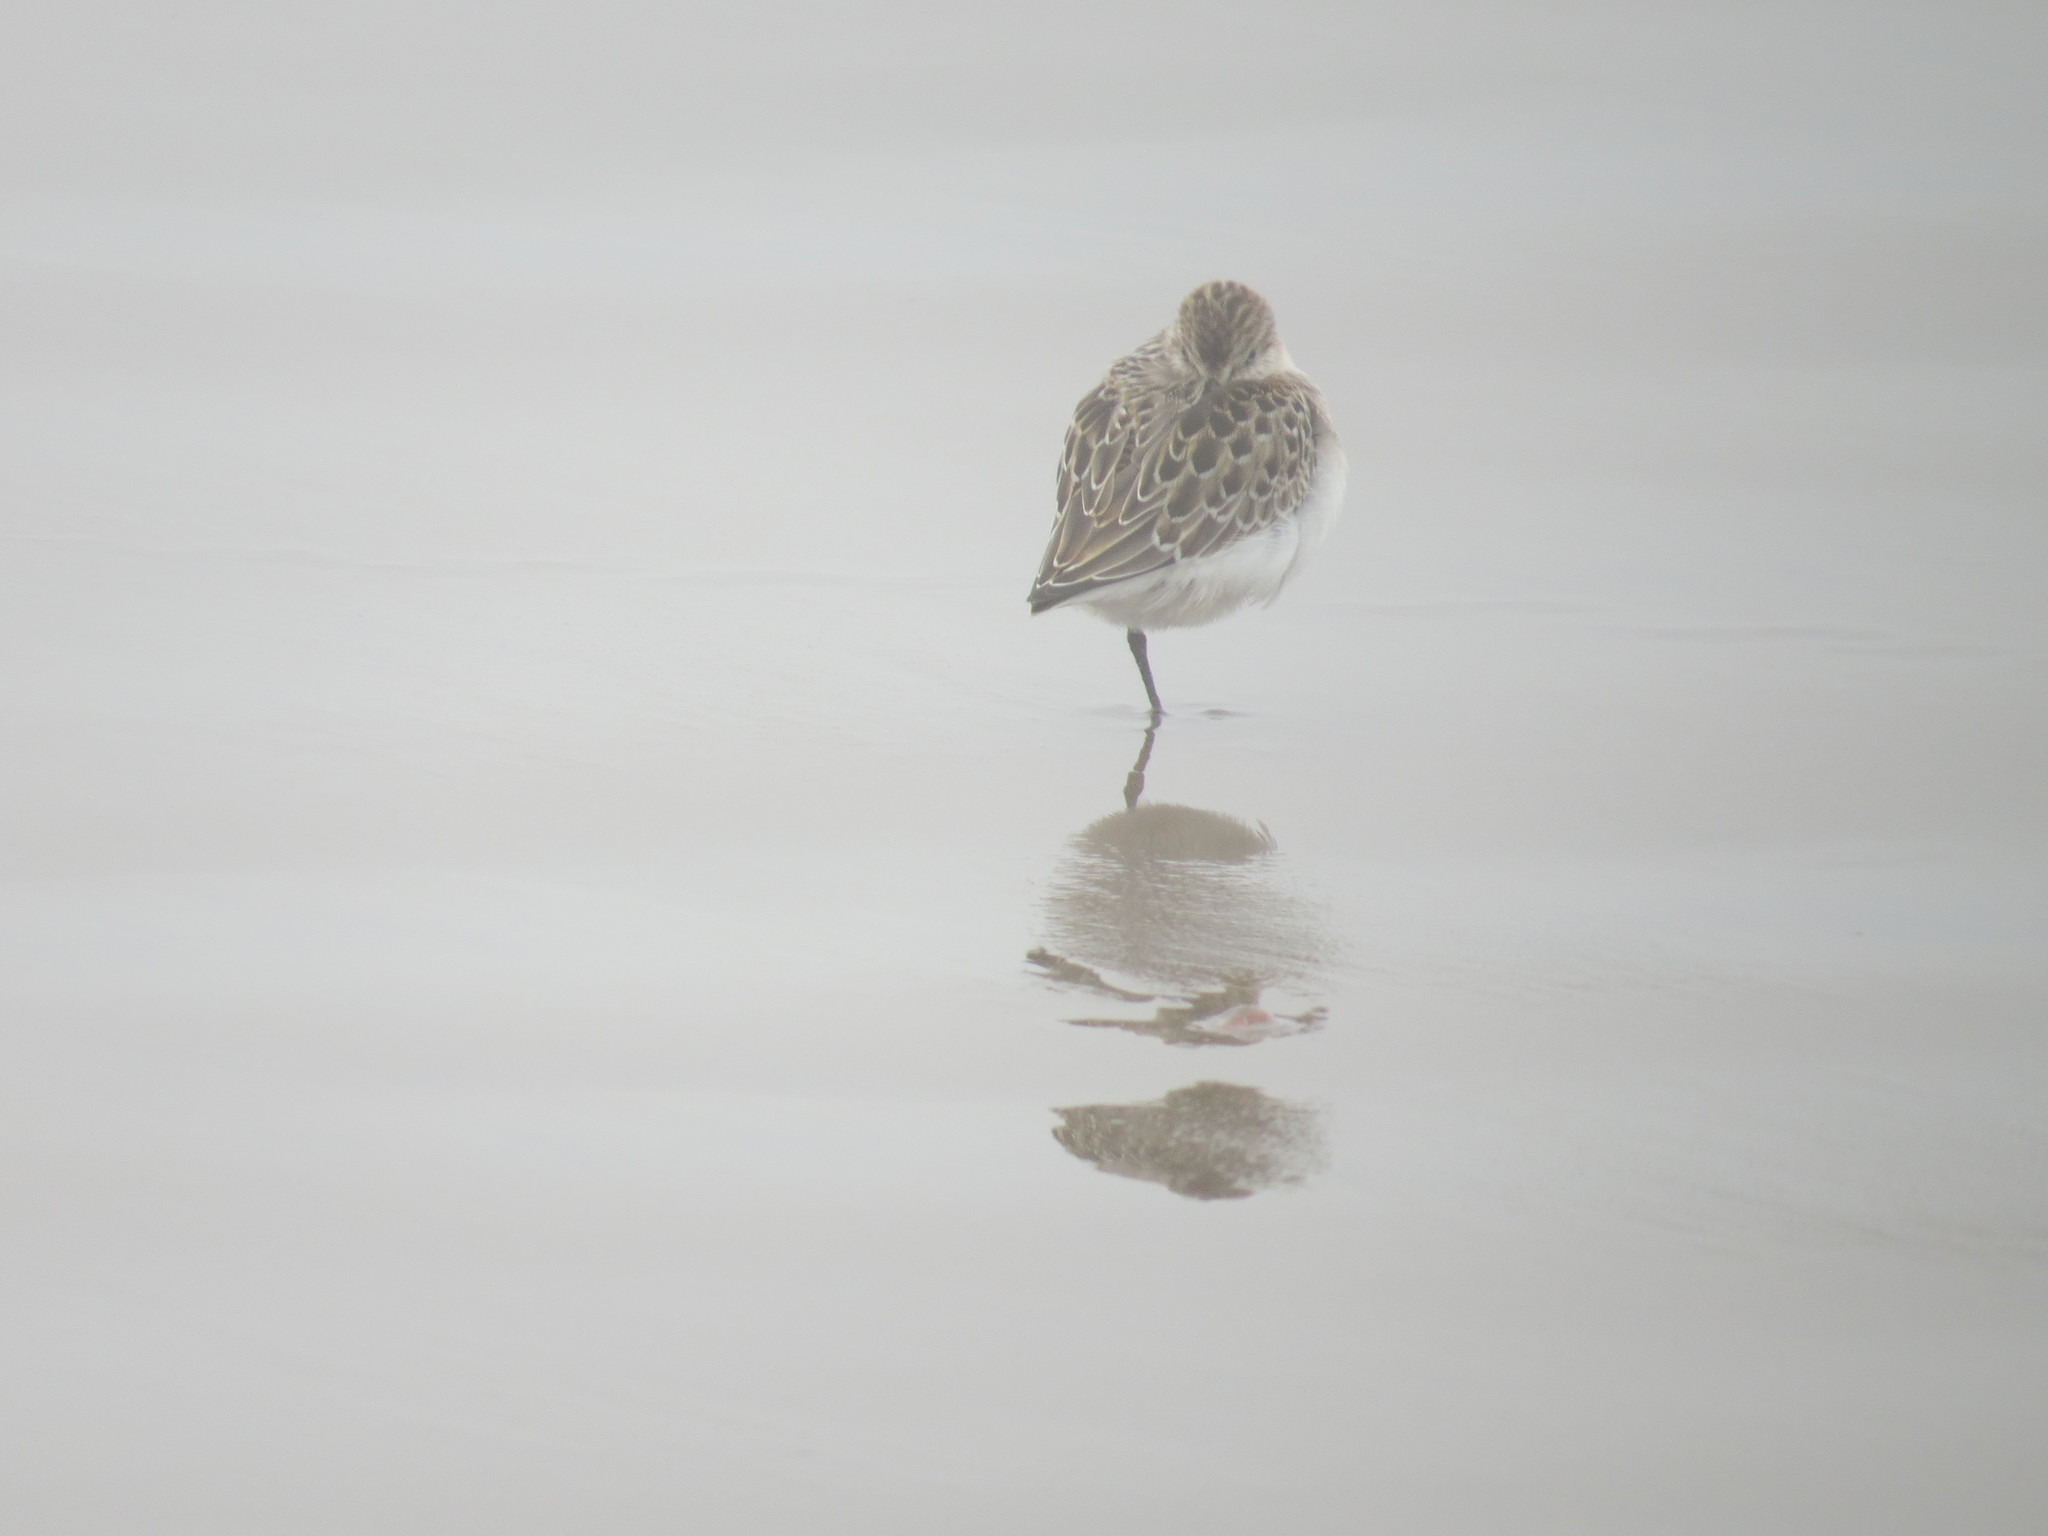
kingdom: Animalia
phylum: Chordata
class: Aves
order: Charadriiformes
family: Scolopacidae
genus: Calidris
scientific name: Calidris pusilla
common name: Semipalmated sandpiper
